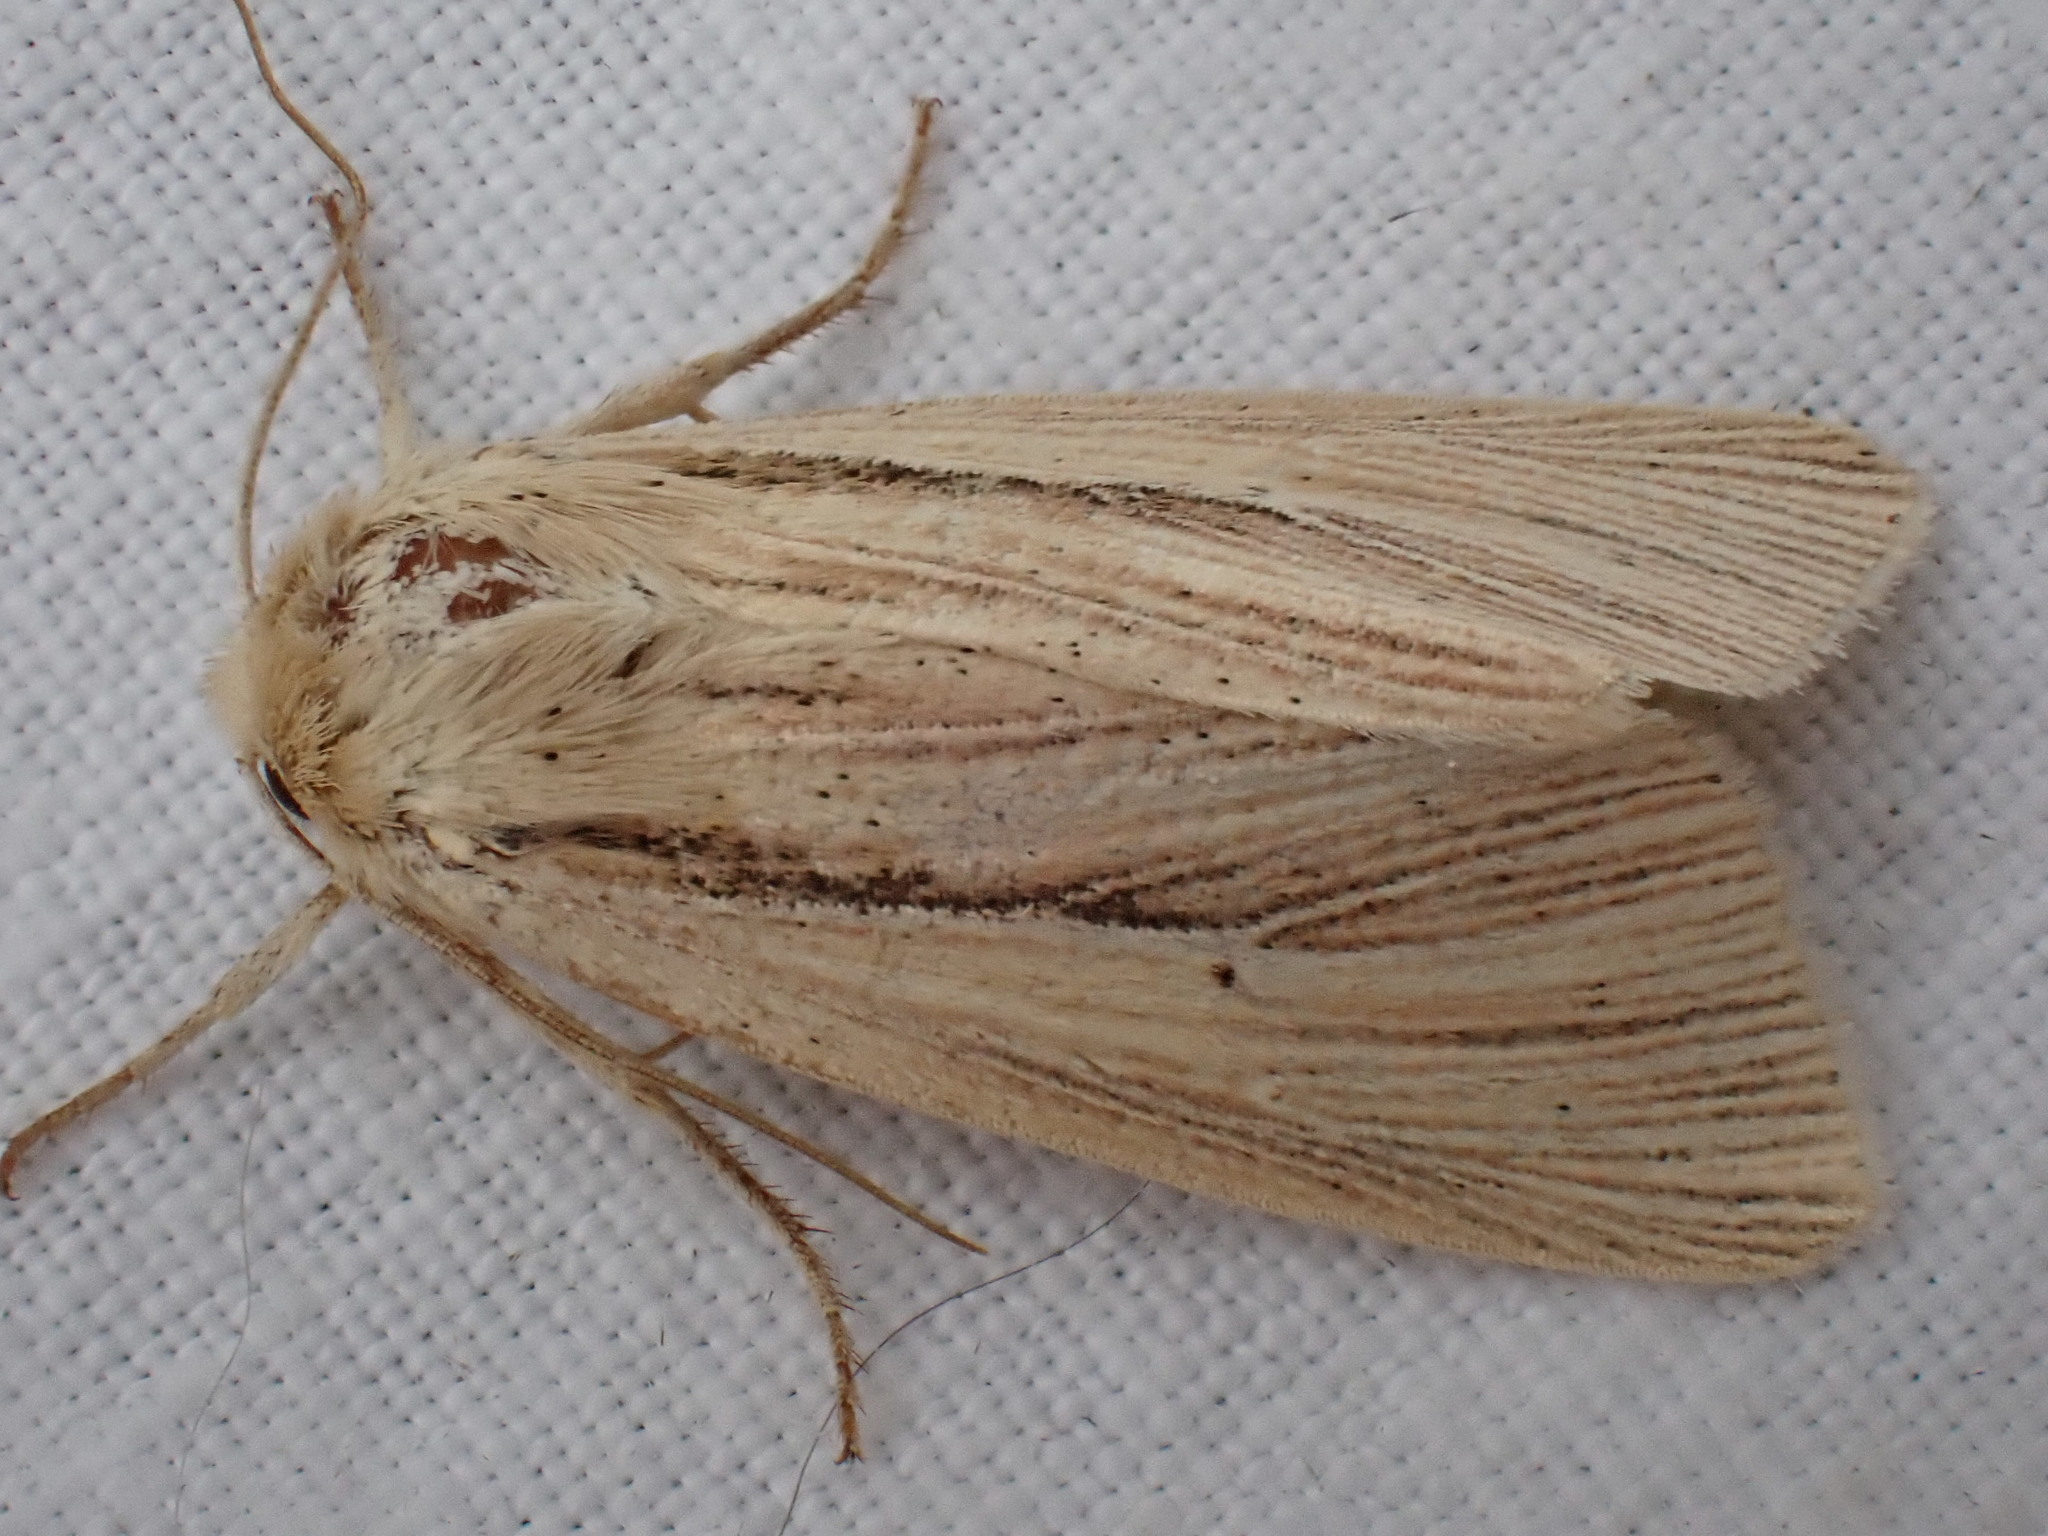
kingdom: Animalia
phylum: Arthropoda
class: Insecta
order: Lepidoptera
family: Noctuidae
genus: Mythimna
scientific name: Mythimna impura
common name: Smoky wainscot
